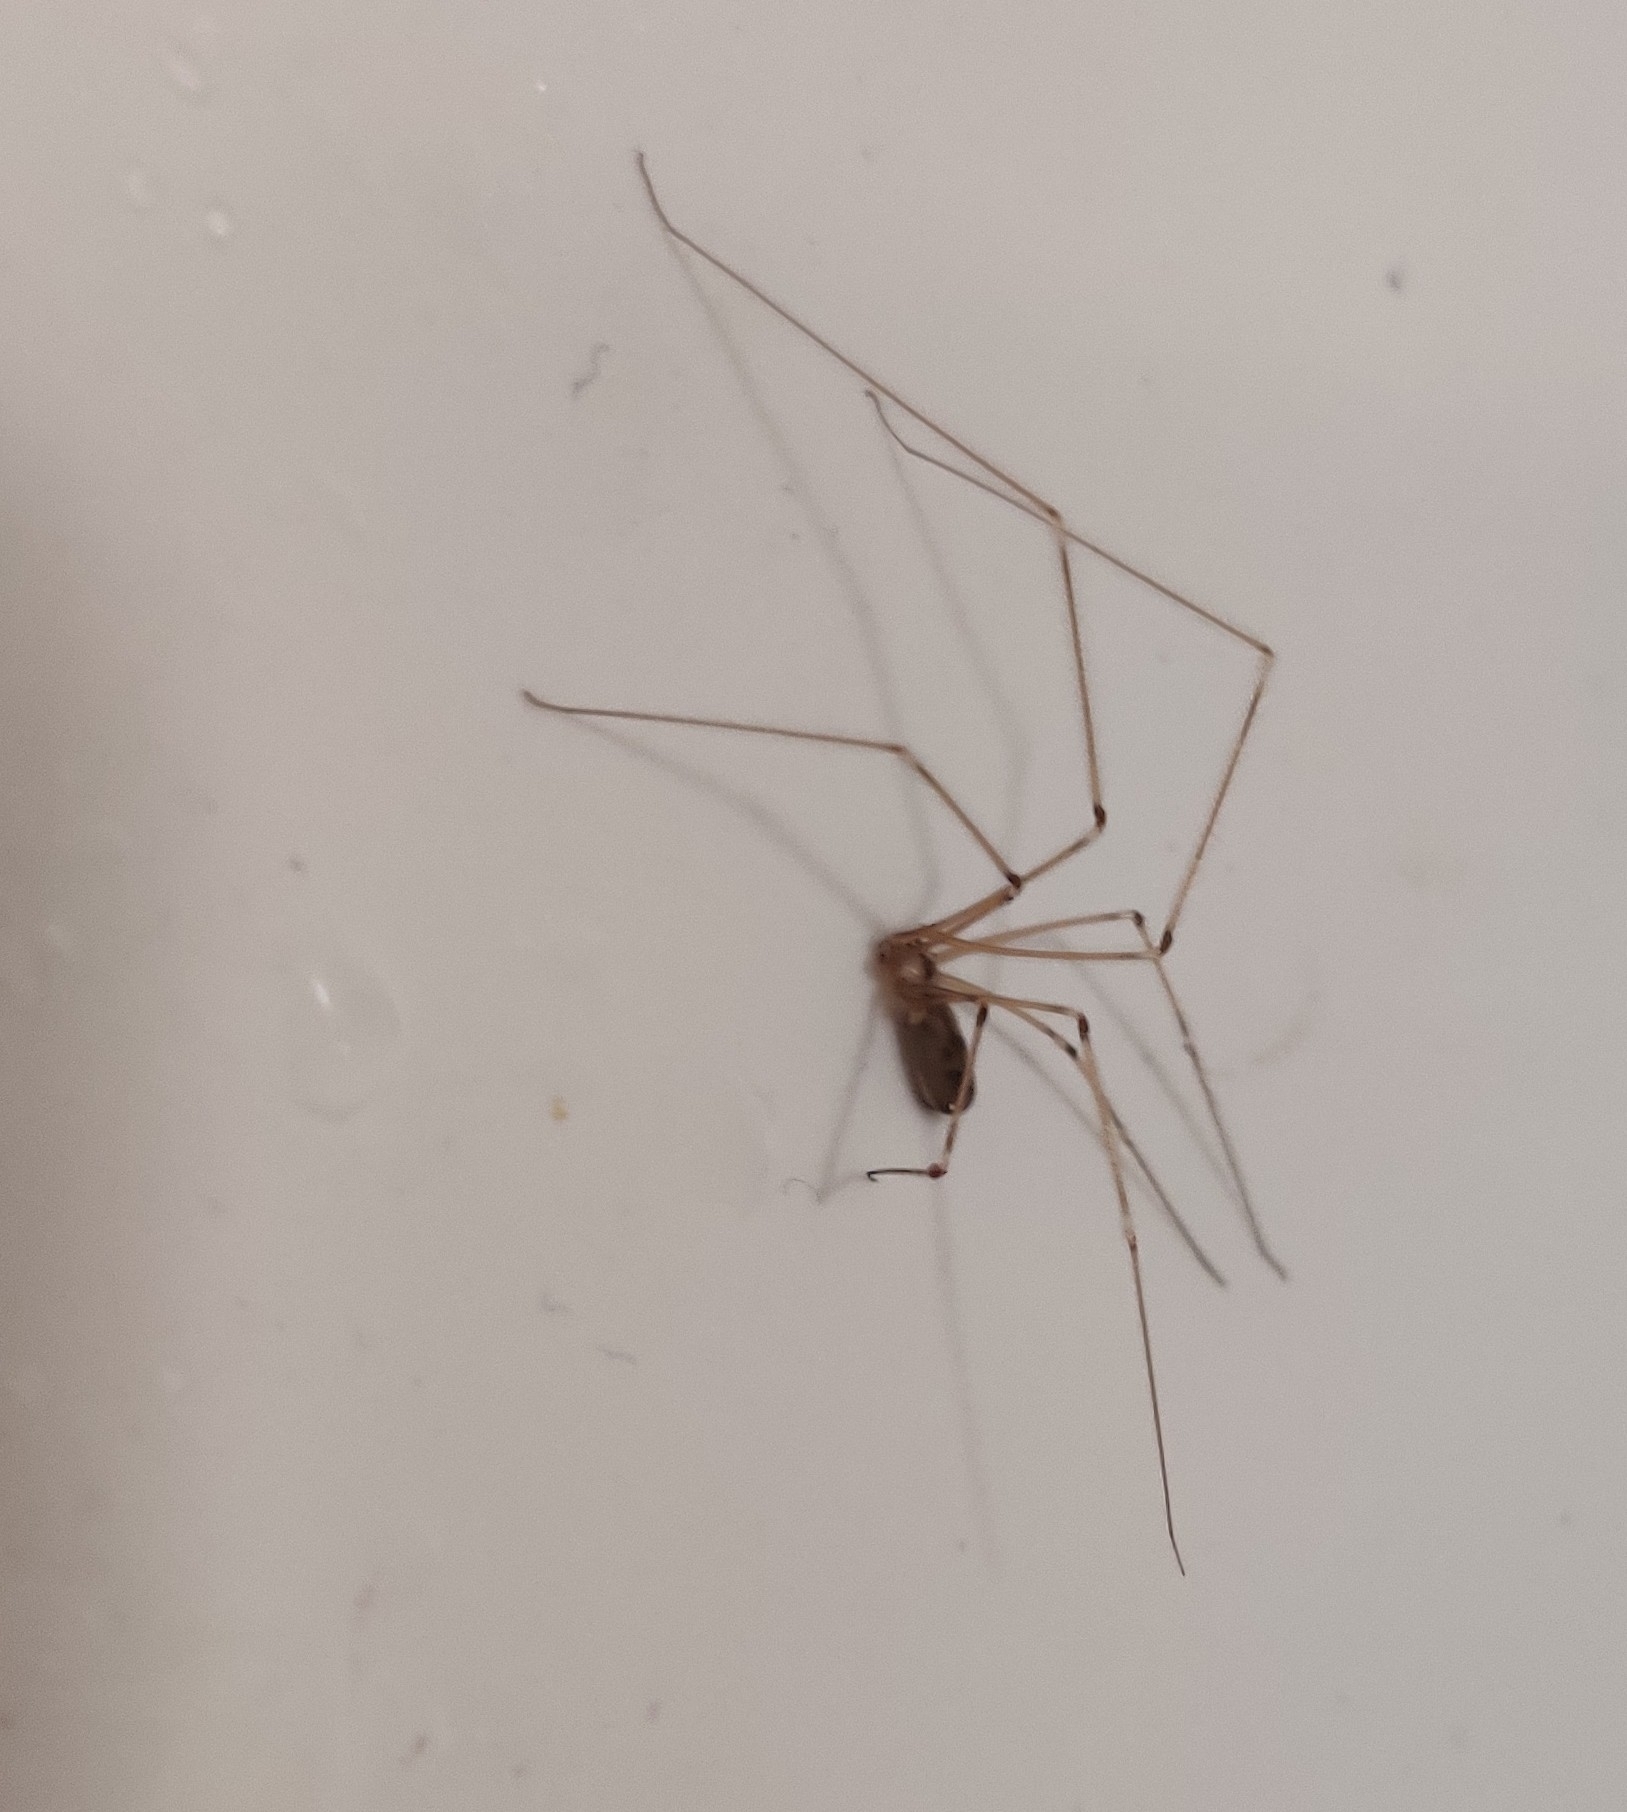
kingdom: Animalia
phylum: Arthropoda
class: Arachnida
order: Araneae
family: Pholcidae
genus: Pholcus
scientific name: Pholcus phalangioides
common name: Longbodied cellar spider
